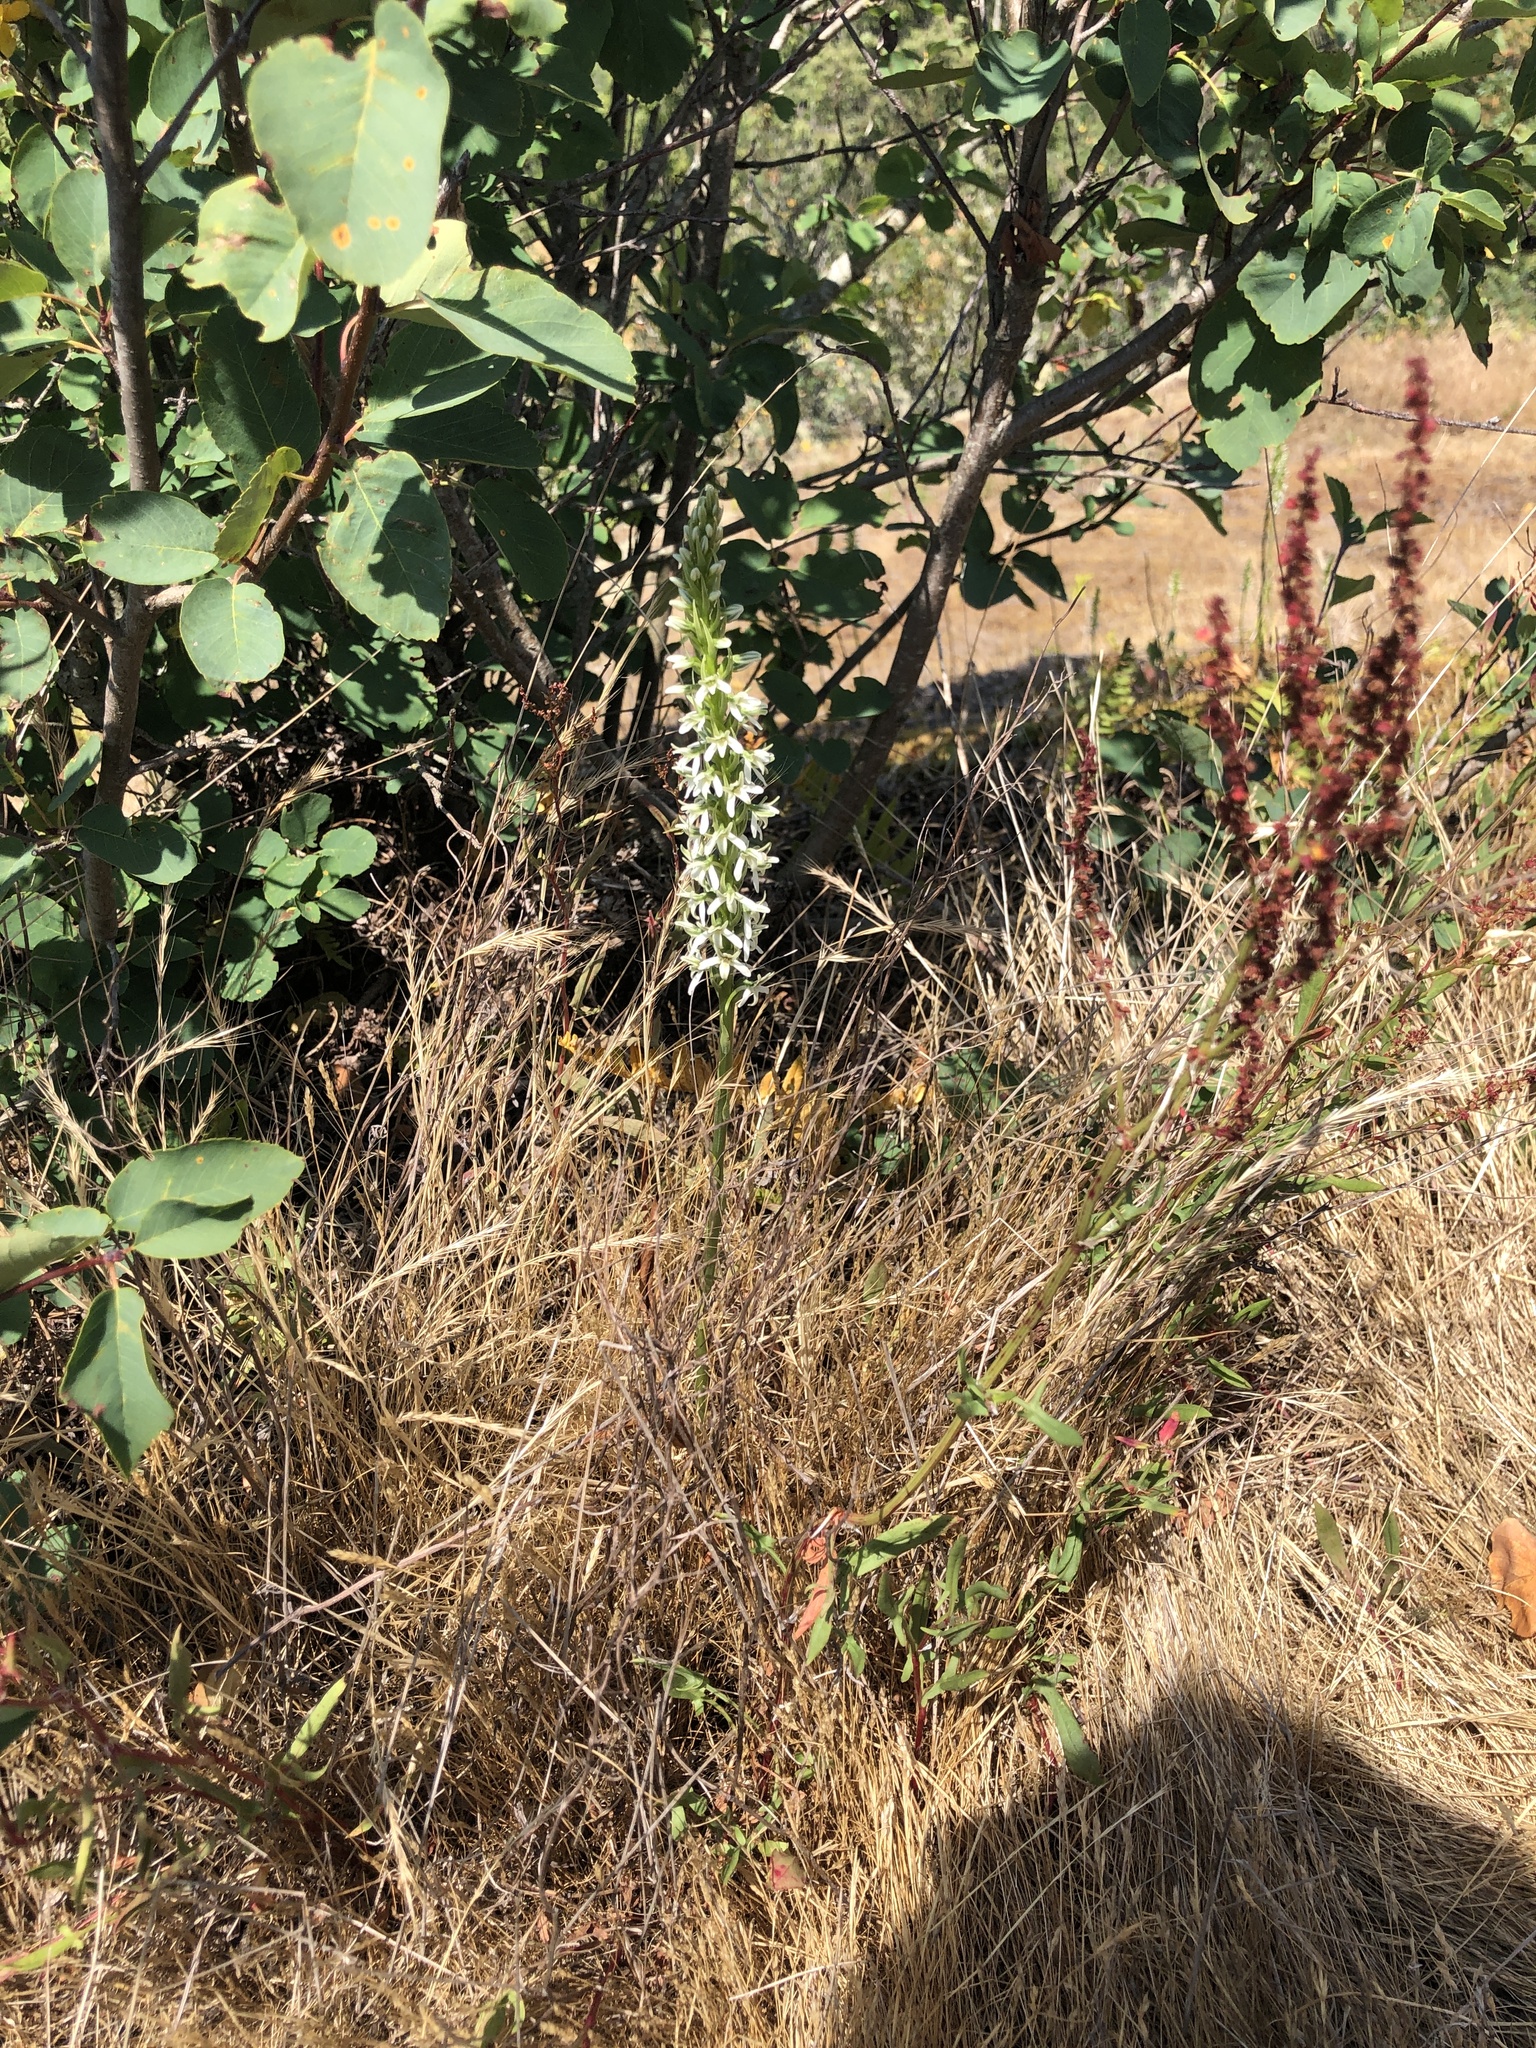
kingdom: Plantae
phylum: Tracheophyta
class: Liliopsida
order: Asparagales
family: Orchidaceae
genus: Platanthera
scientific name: Platanthera elegans
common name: Coast piperia
